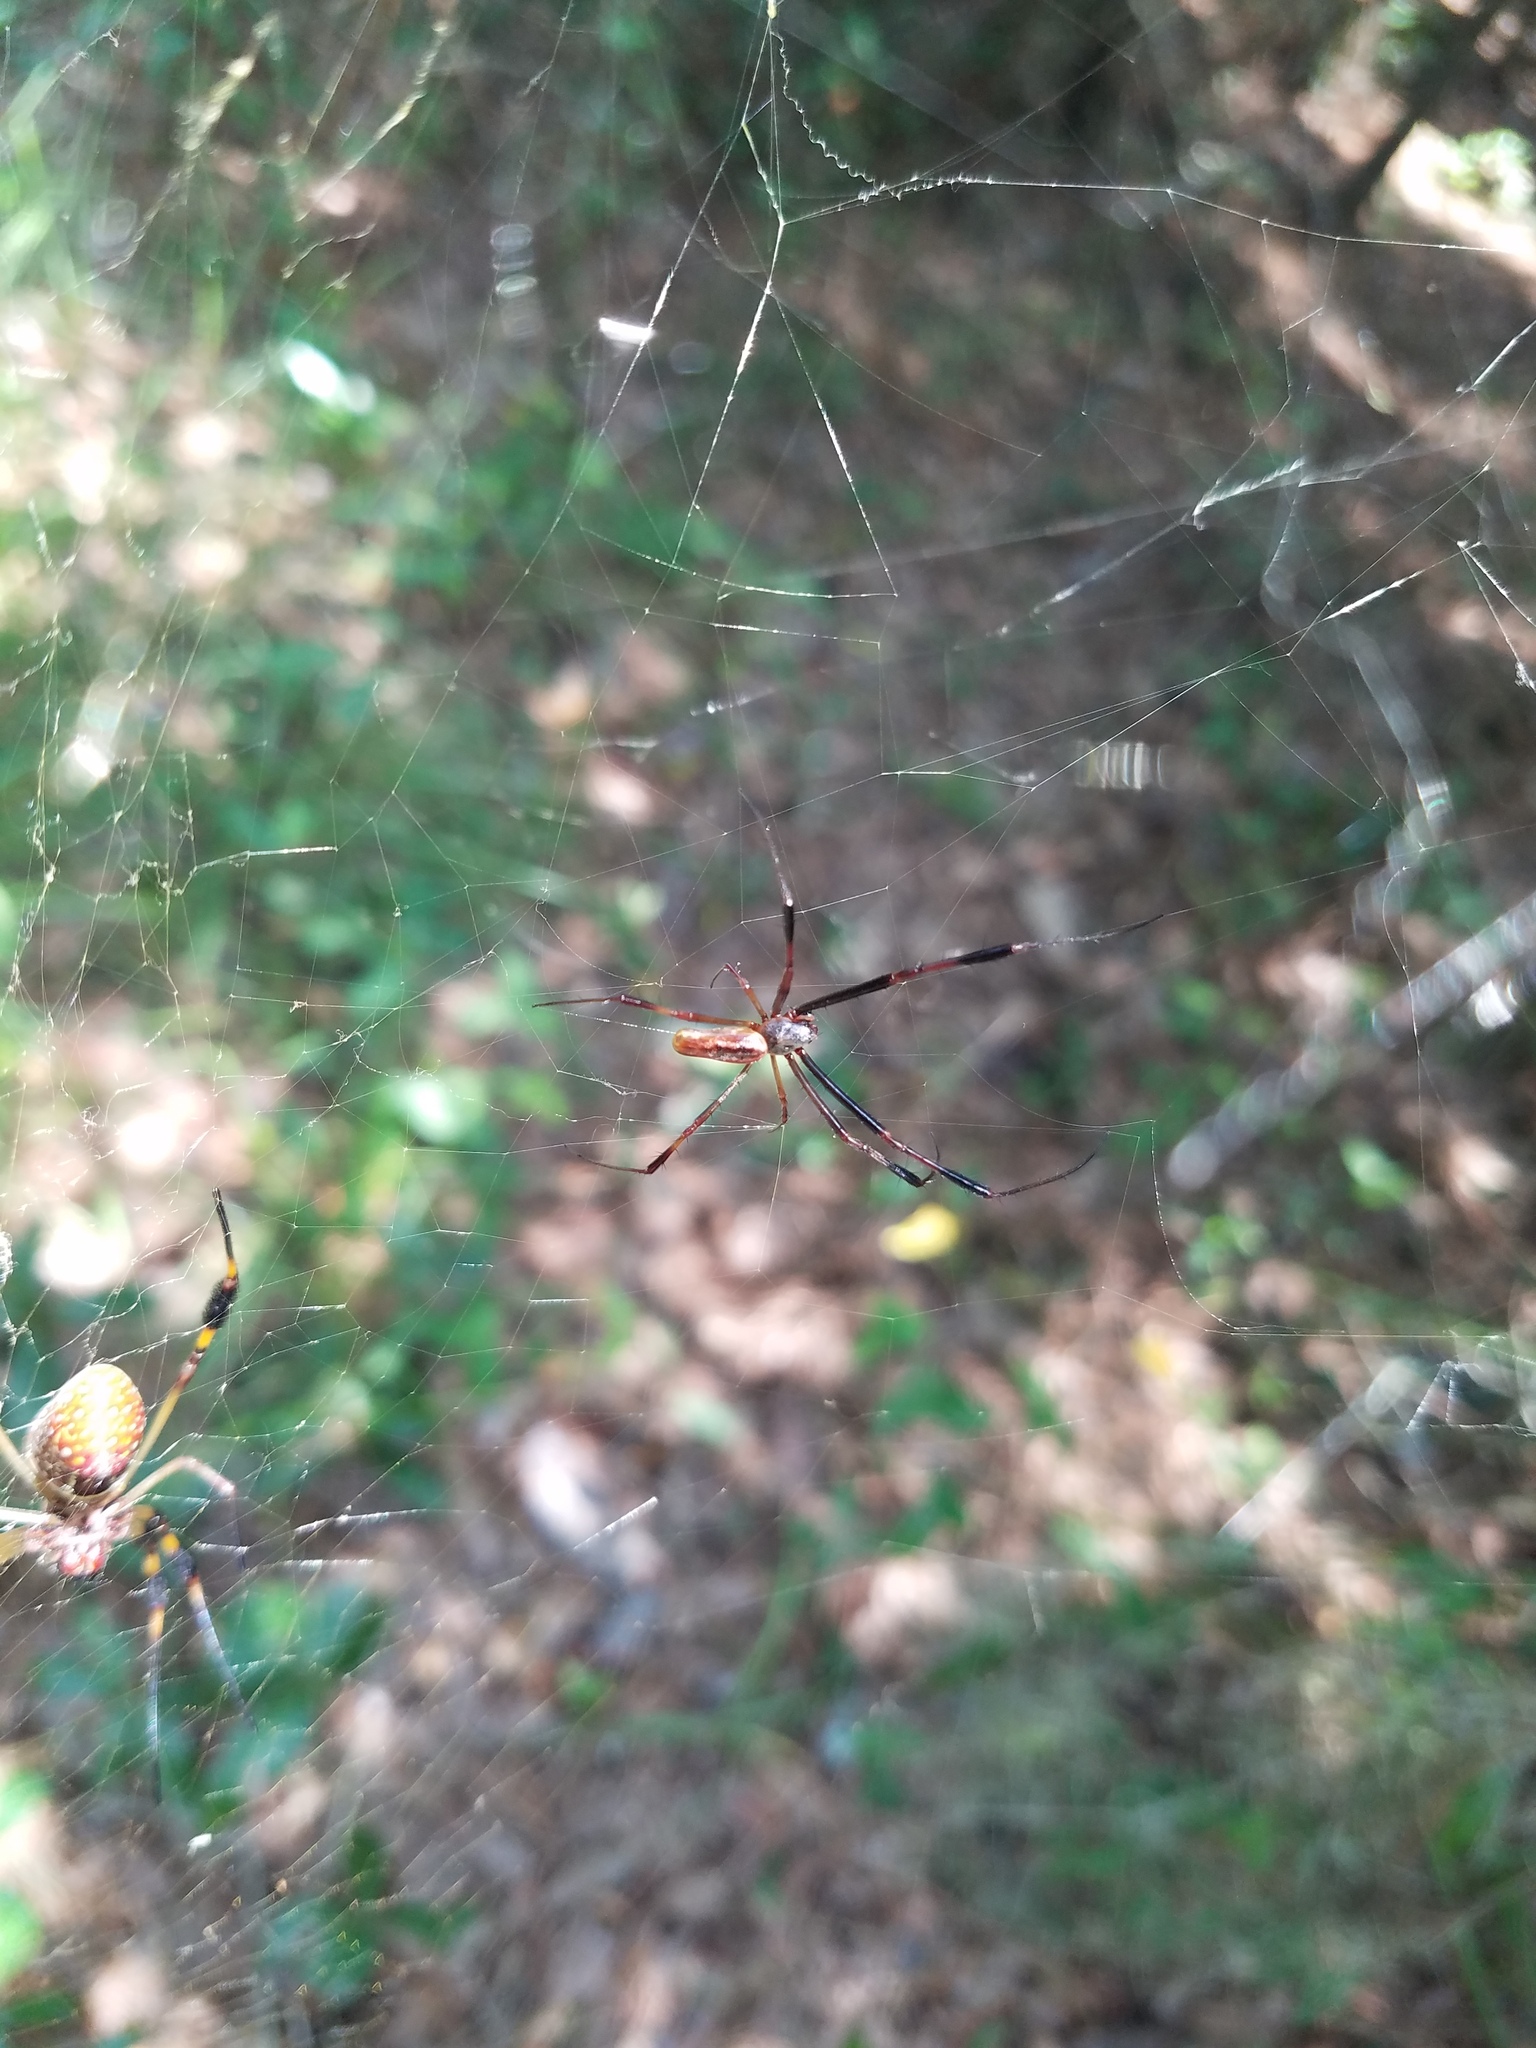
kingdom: Animalia
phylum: Arthropoda
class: Arachnida
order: Araneae
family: Araneidae
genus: Trichonephila
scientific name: Trichonephila clavipes
